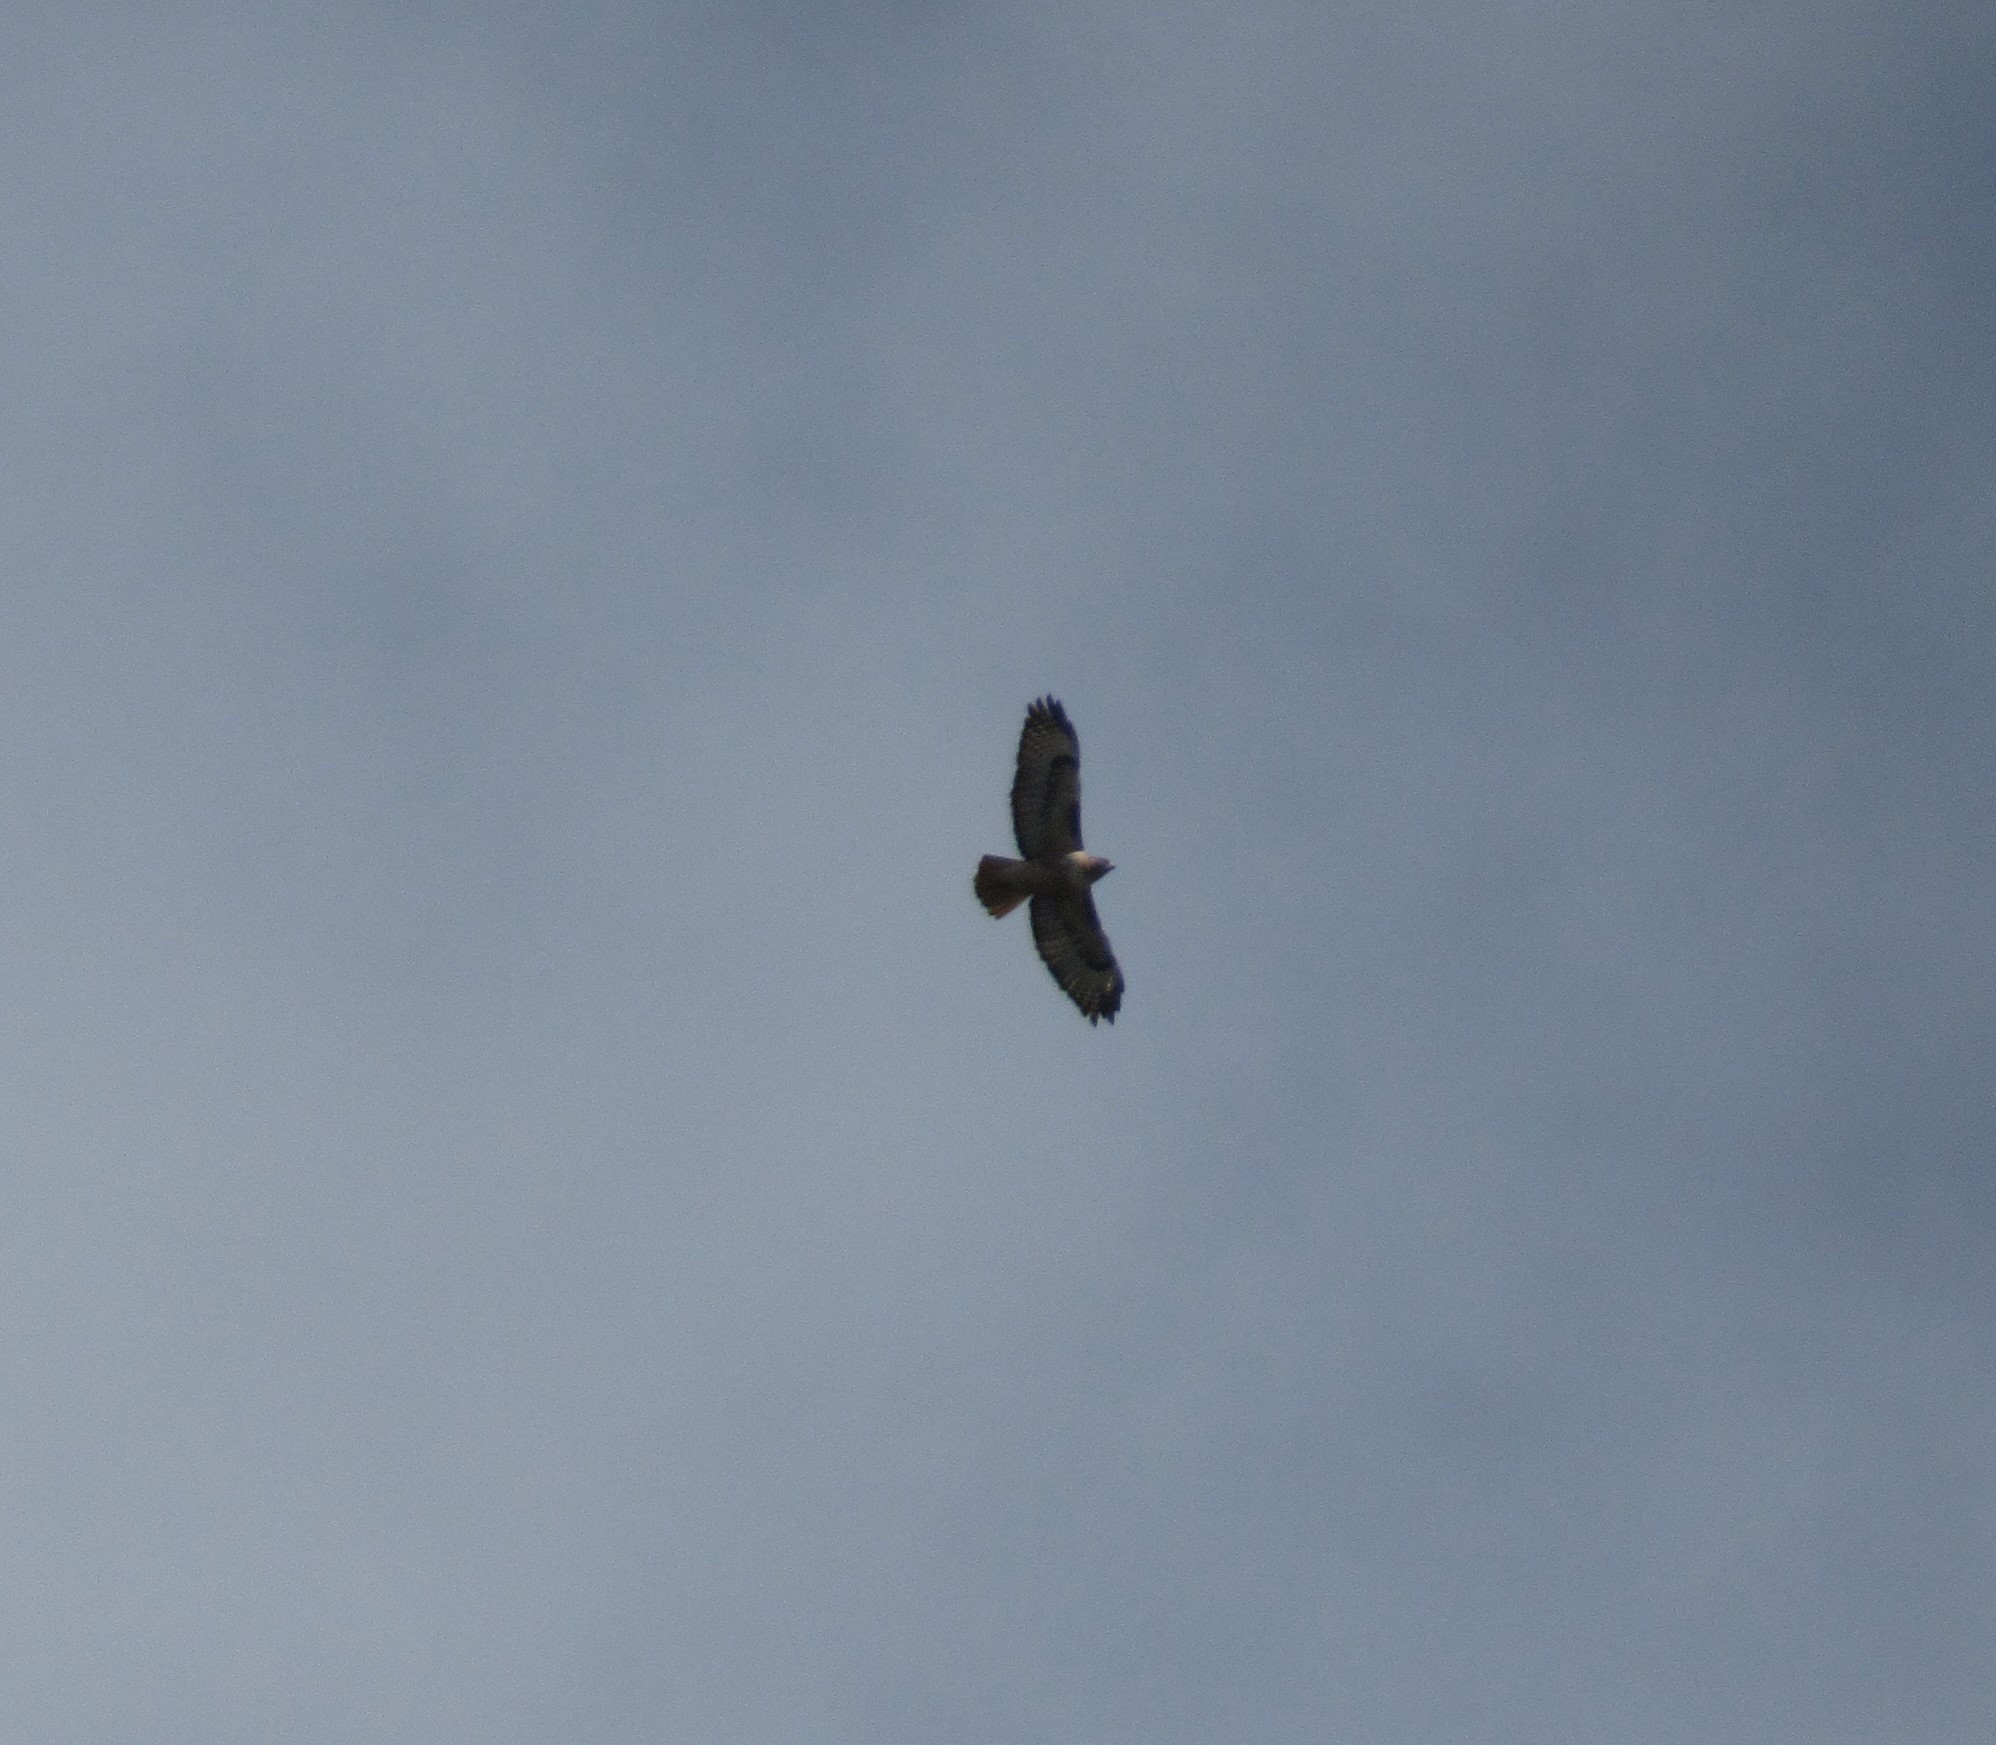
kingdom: Animalia
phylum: Chordata
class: Aves
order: Accipitriformes
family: Accipitridae
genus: Buteo
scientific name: Buteo jamaicensis
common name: Red-tailed hawk
